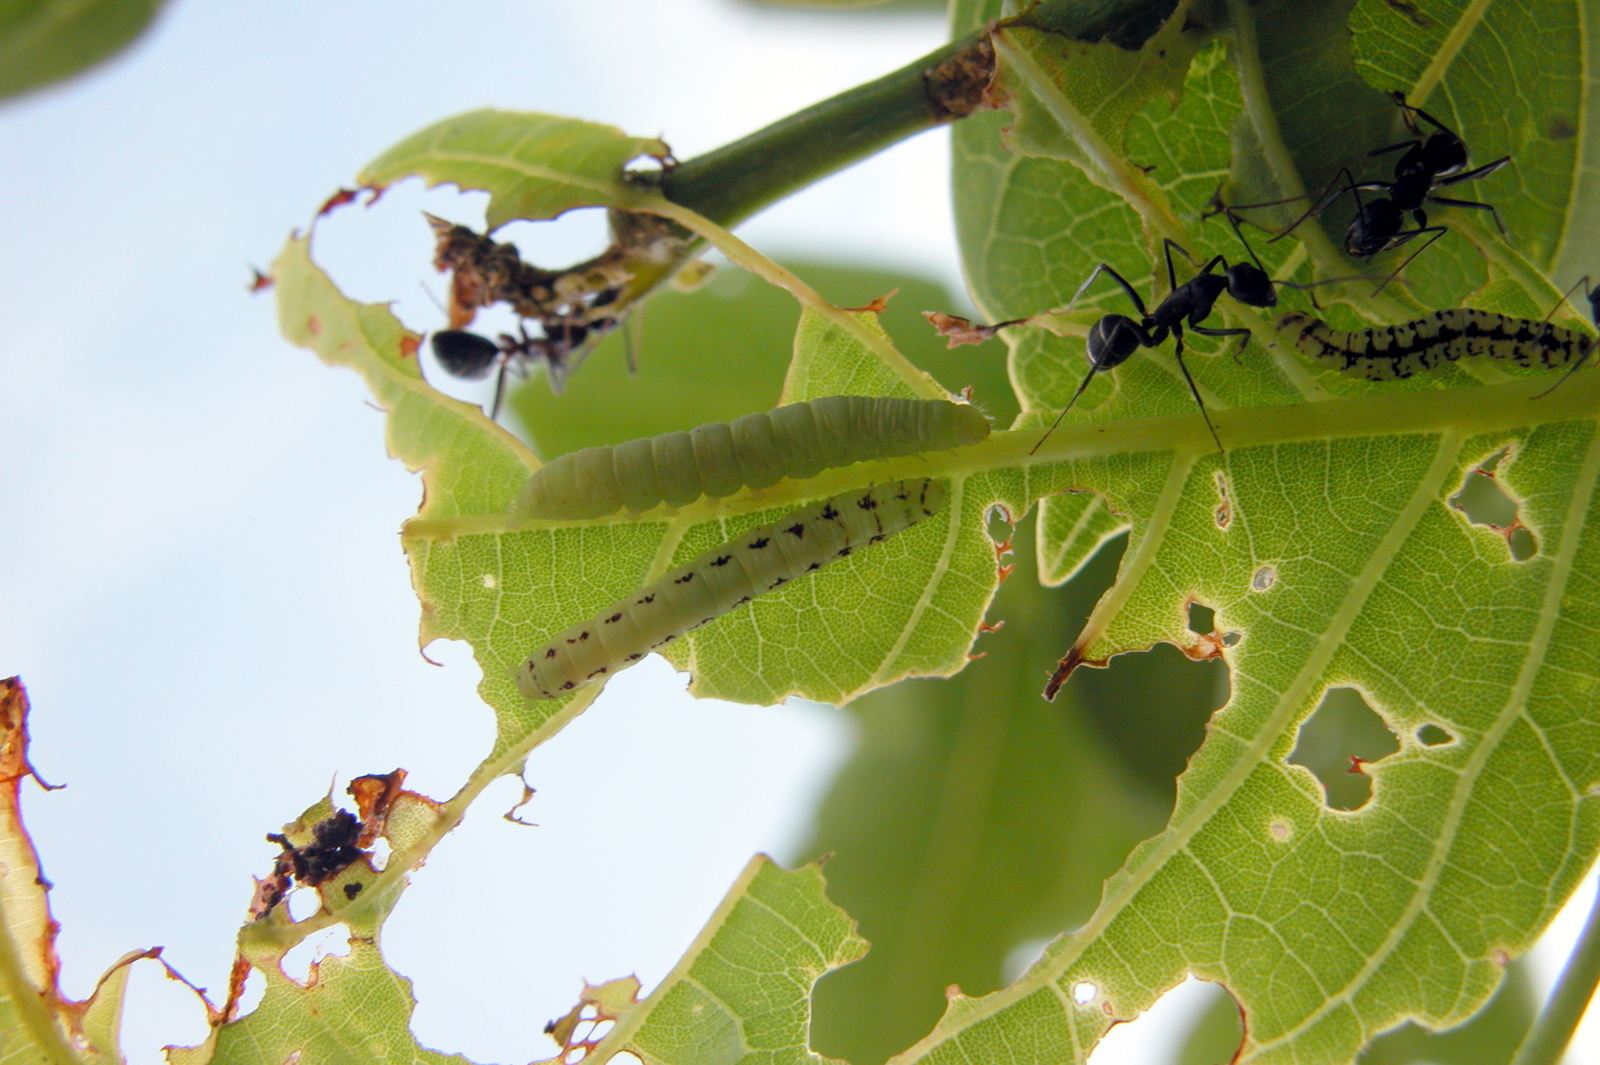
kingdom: Animalia
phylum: Arthropoda
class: Insecta
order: Hymenoptera
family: Formicidae
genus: Camponotus
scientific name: Camponotus compressus
